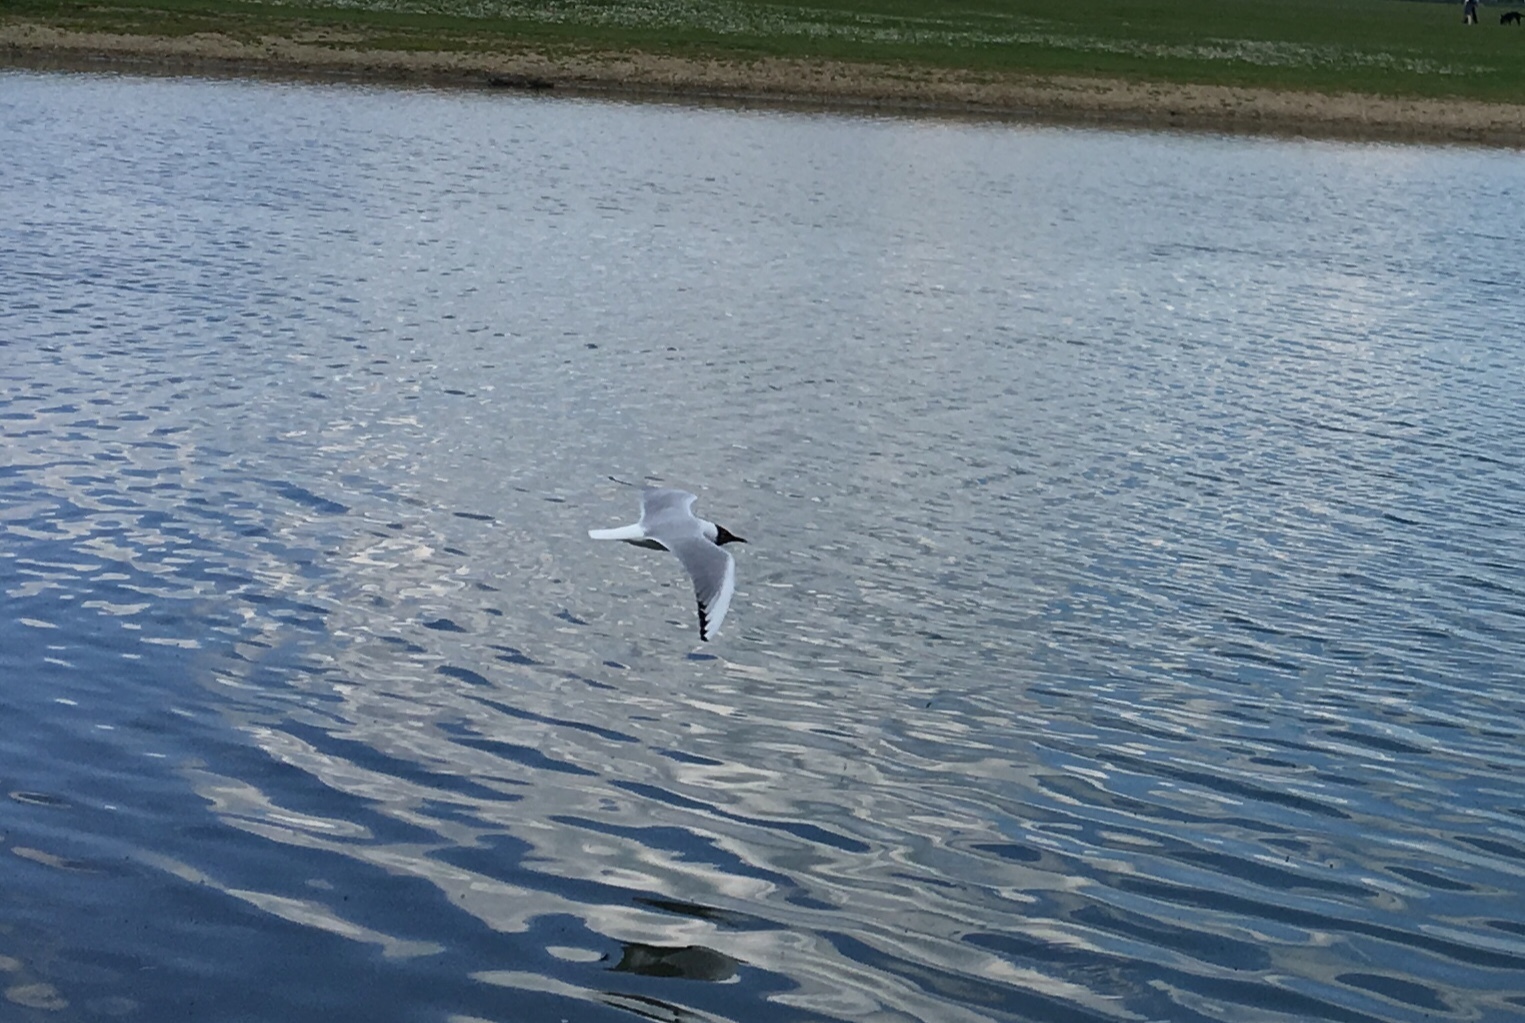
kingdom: Animalia
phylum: Chordata
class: Aves
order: Charadriiformes
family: Laridae
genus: Chroicocephalus
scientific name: Chroicocephalus ridibundus
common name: Black-headed gull
